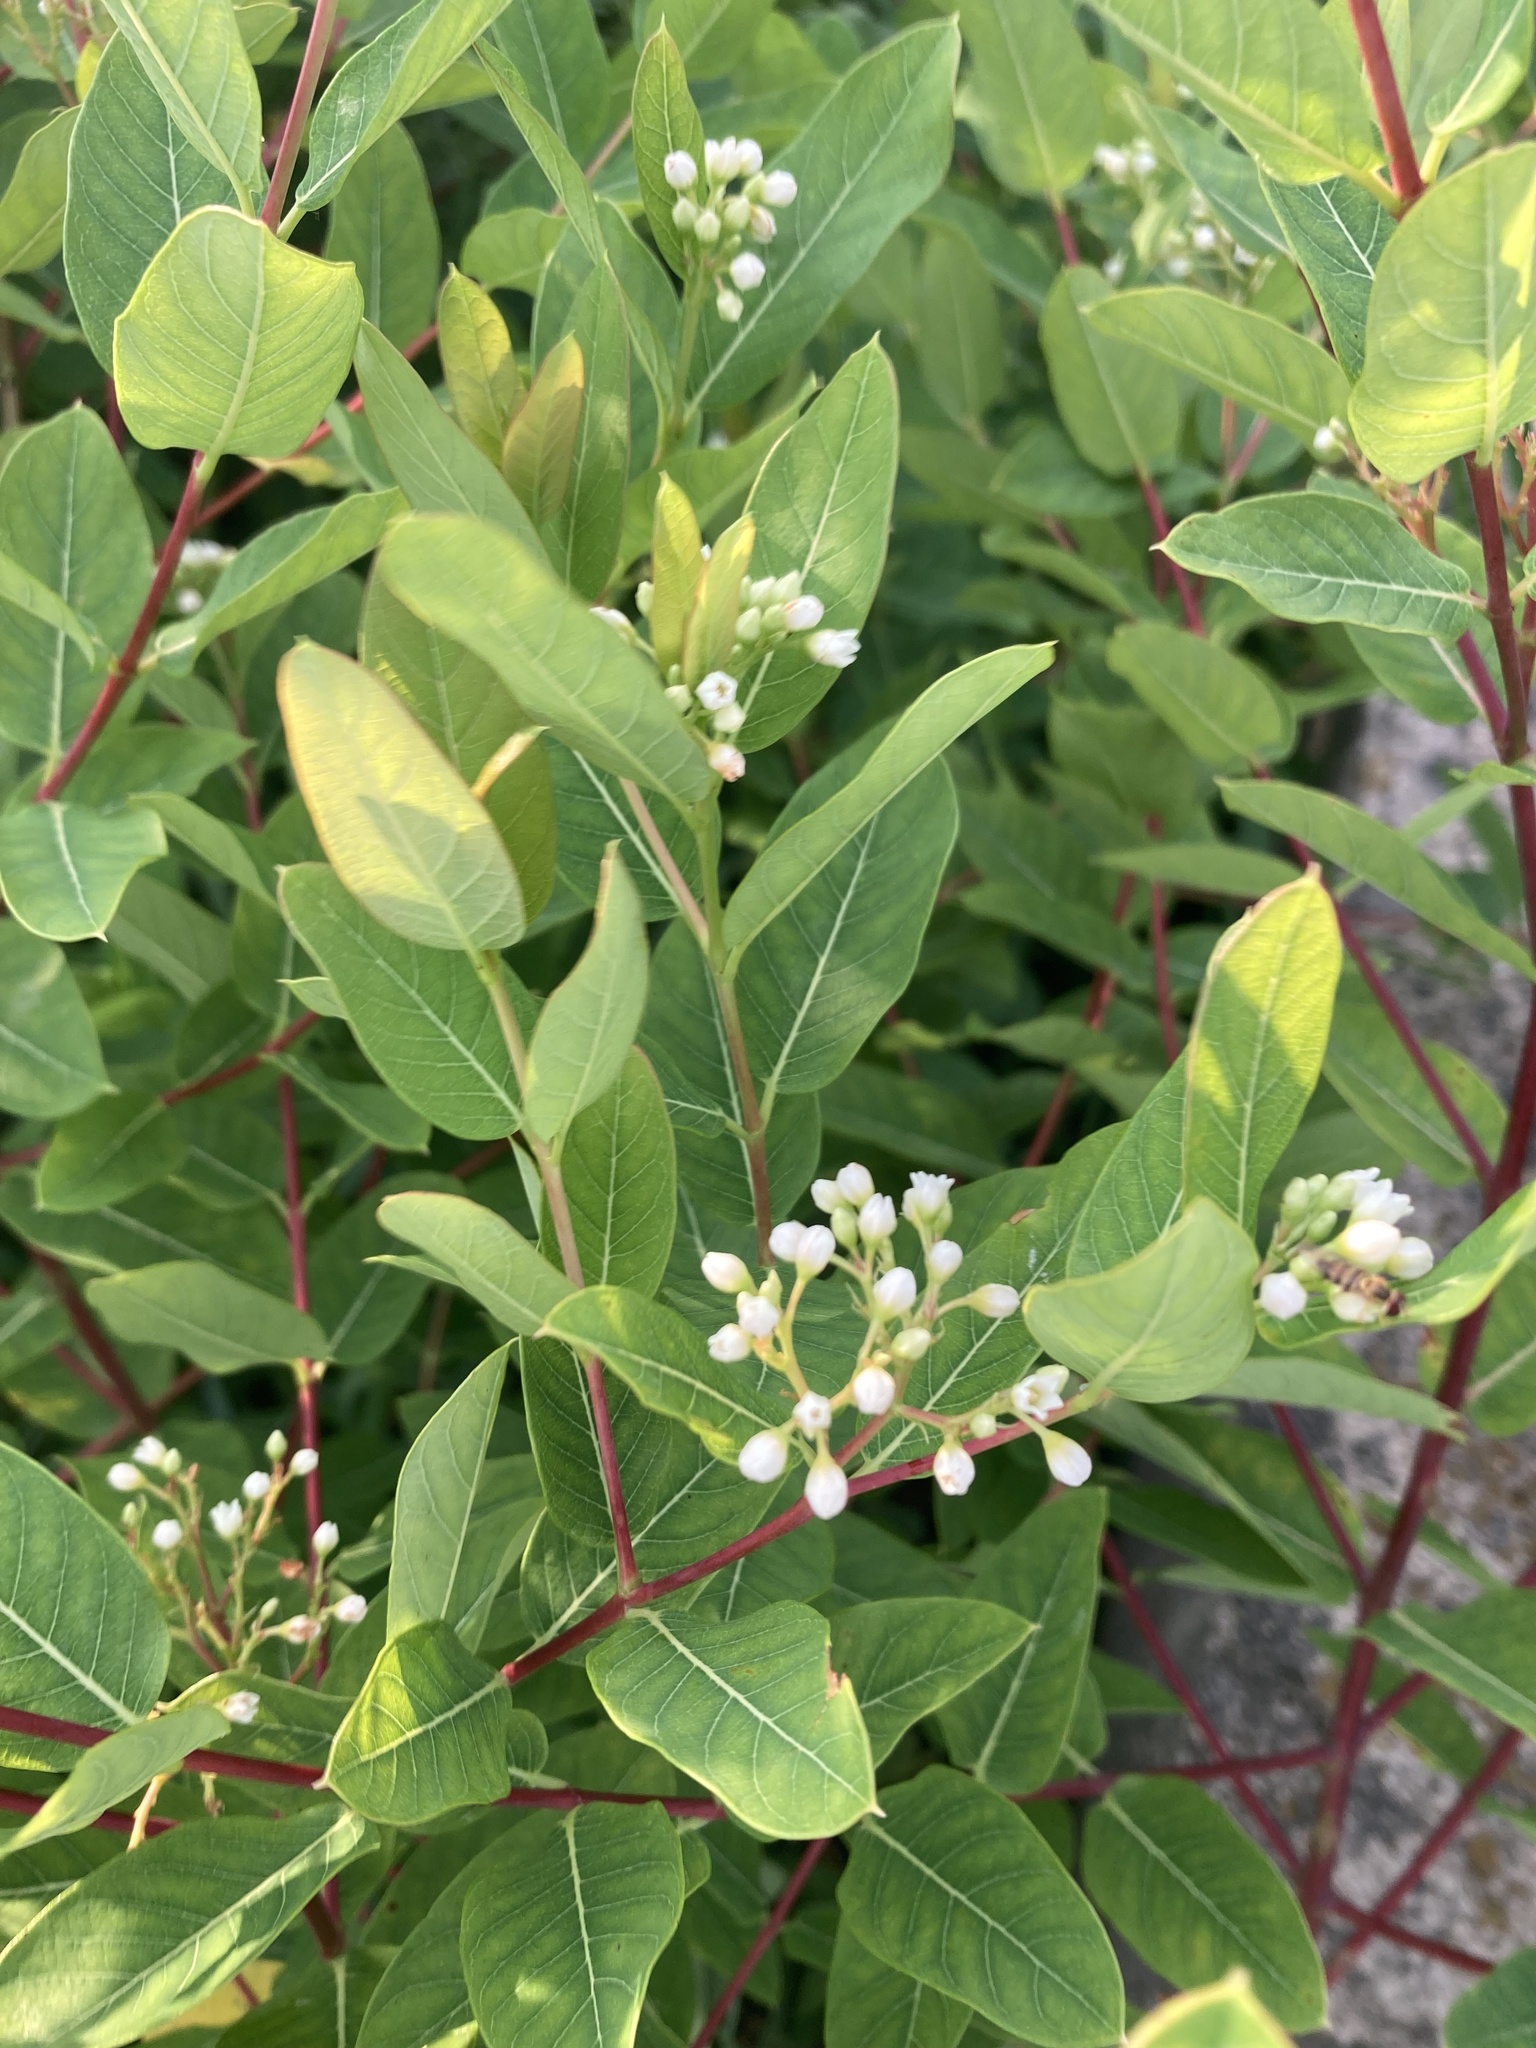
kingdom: Plantae
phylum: Tracheophyta
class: Magnoliopsida
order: Gentianales
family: Apocynaceae
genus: Apocynum
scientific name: Apocynum cannabinum
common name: Hemp dogbane
